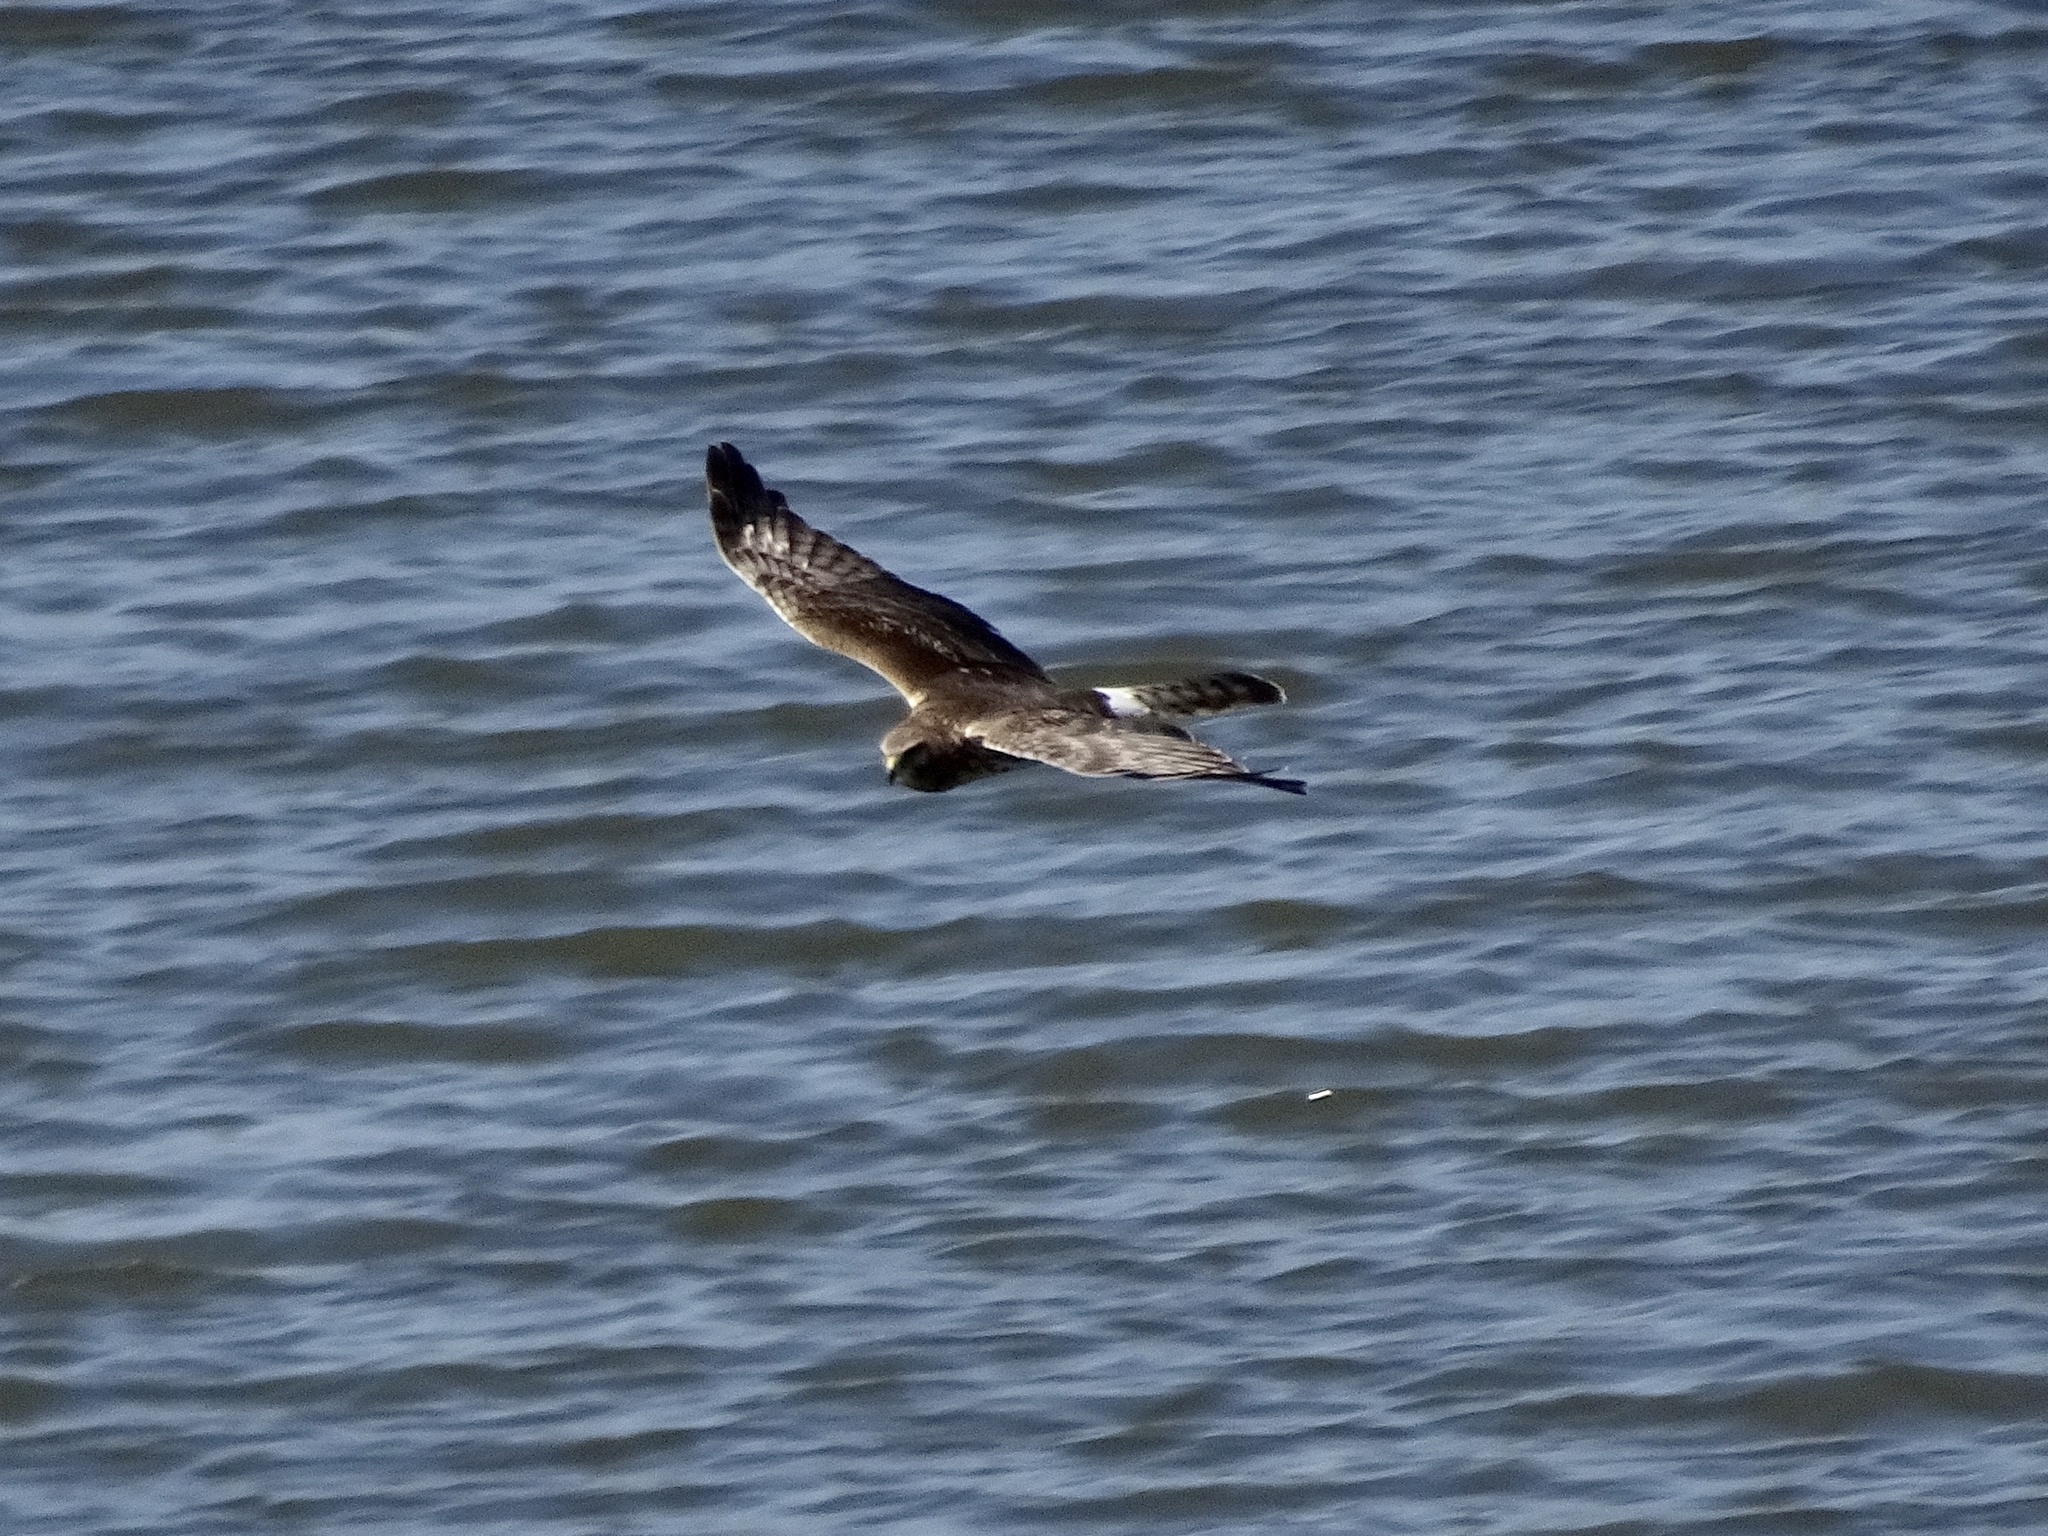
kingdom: Animalia
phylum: Chordata
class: Aves
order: Accipitriformes
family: Accipitridae
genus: Circus
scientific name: Circus cyaneus
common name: Hen harrier
